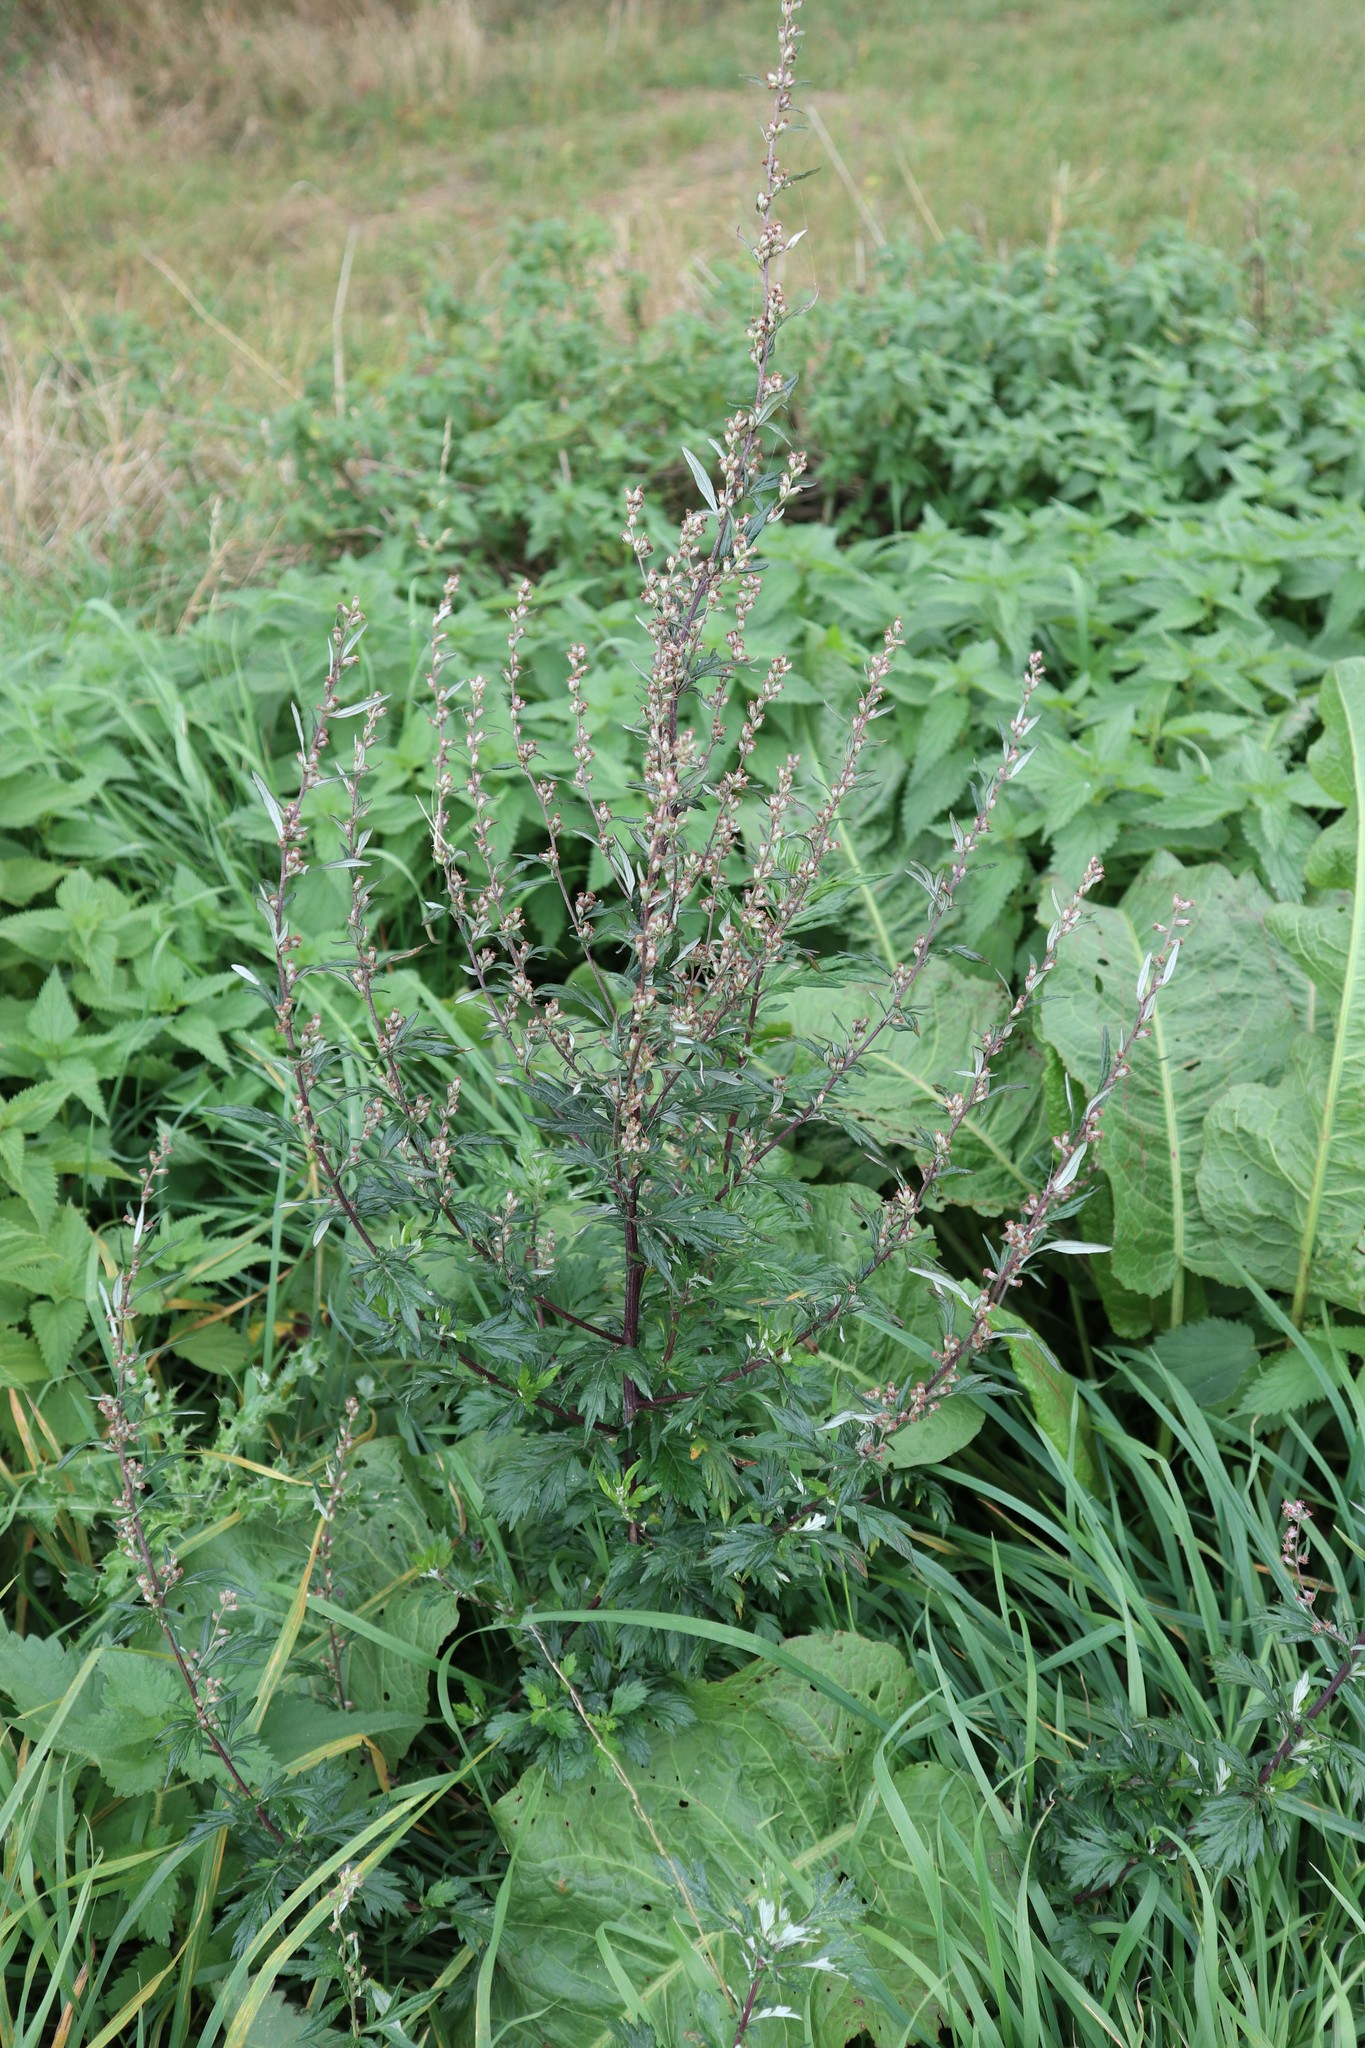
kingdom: Plantae
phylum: Tracheophyta
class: Magnoliopsida
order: Asterales
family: Asteraceae
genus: Artemisia
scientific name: Artemisia vulgaris
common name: Mugwort
